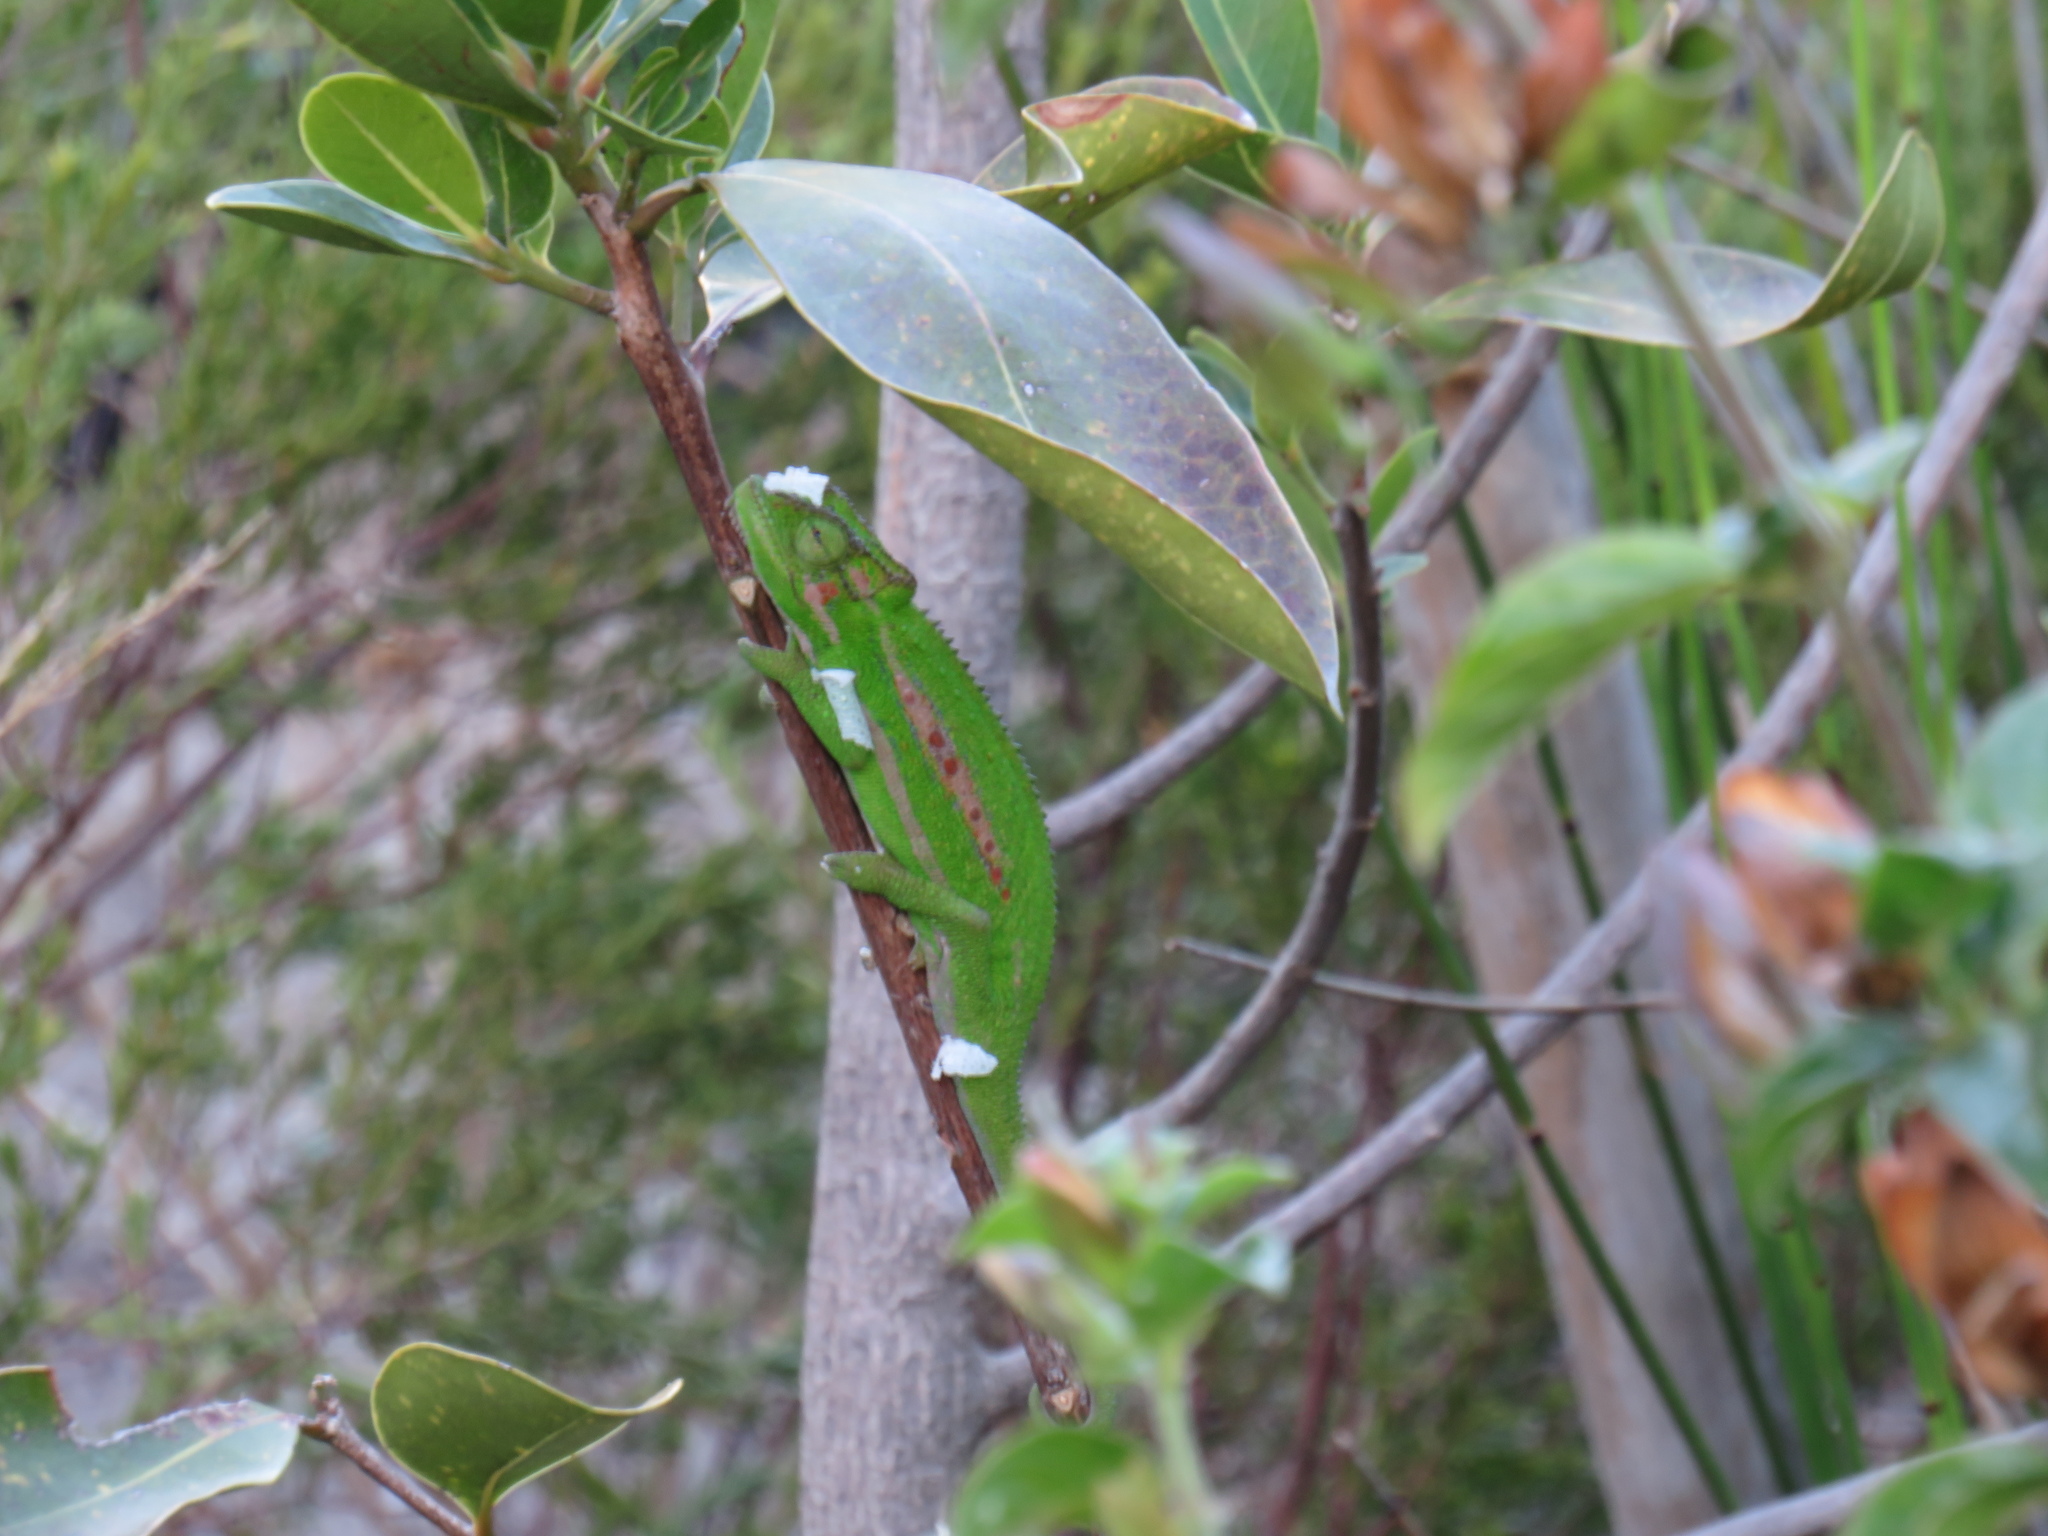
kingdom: Animalia
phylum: Chordata
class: Squamata
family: Chamaeleonidae
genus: Bradypodion
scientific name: Bradypodion pumilum
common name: Cape dwarf chameleon
